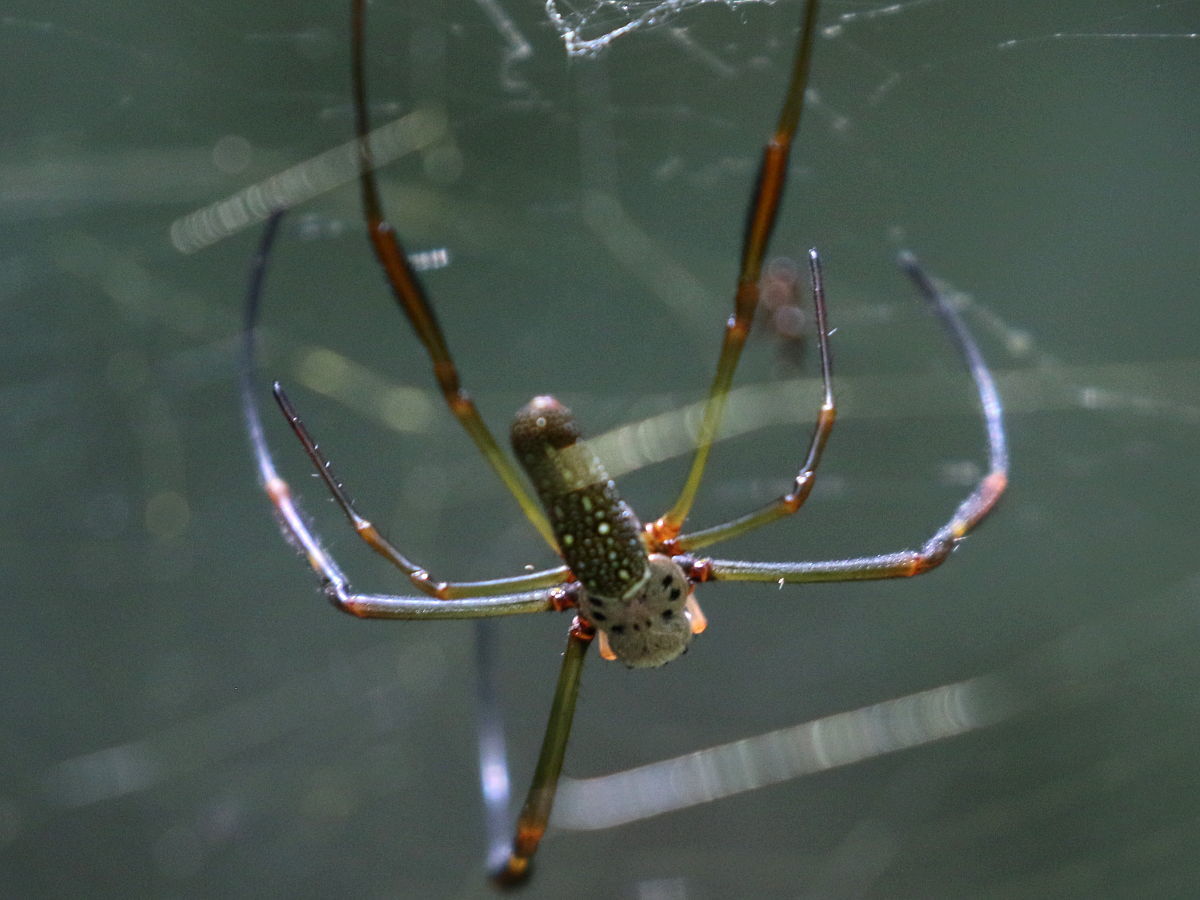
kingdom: Animalia
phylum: Arthropoda
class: Arachnida
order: Araneae
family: Araneidae
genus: Trichonephila
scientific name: Trichonephila clavipes
